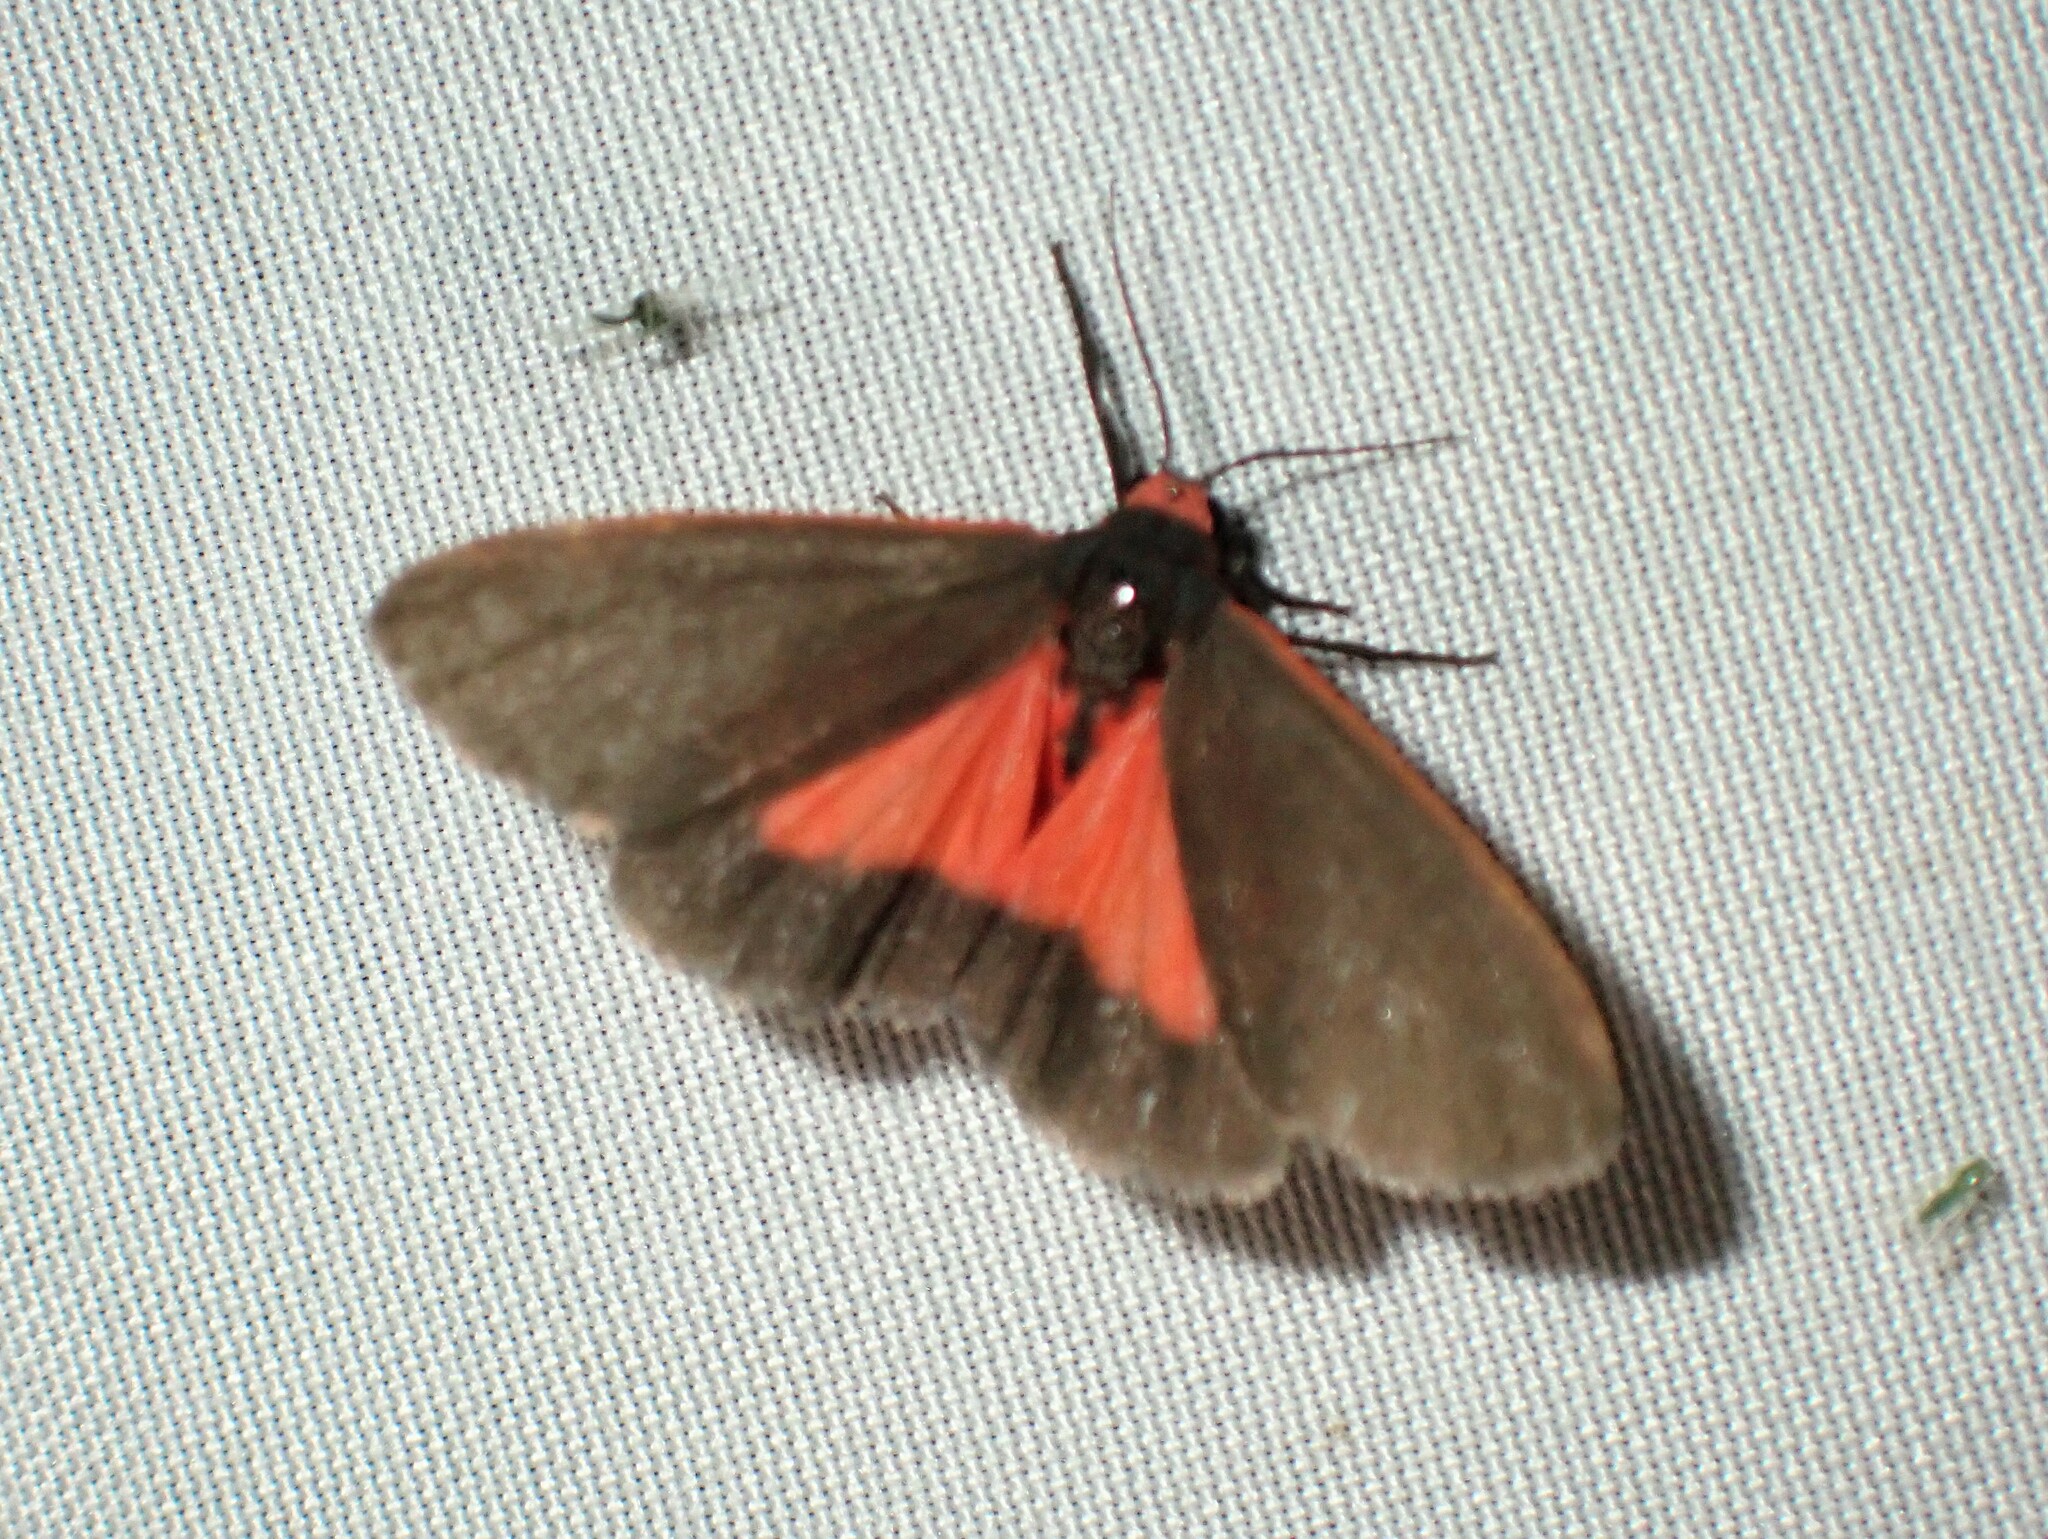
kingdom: Animalia
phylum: Arthropoda
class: Insecta
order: Lepidoptera
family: Erebidae
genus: Virbia
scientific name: Virbia laeta
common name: Joyful holomelina moth
